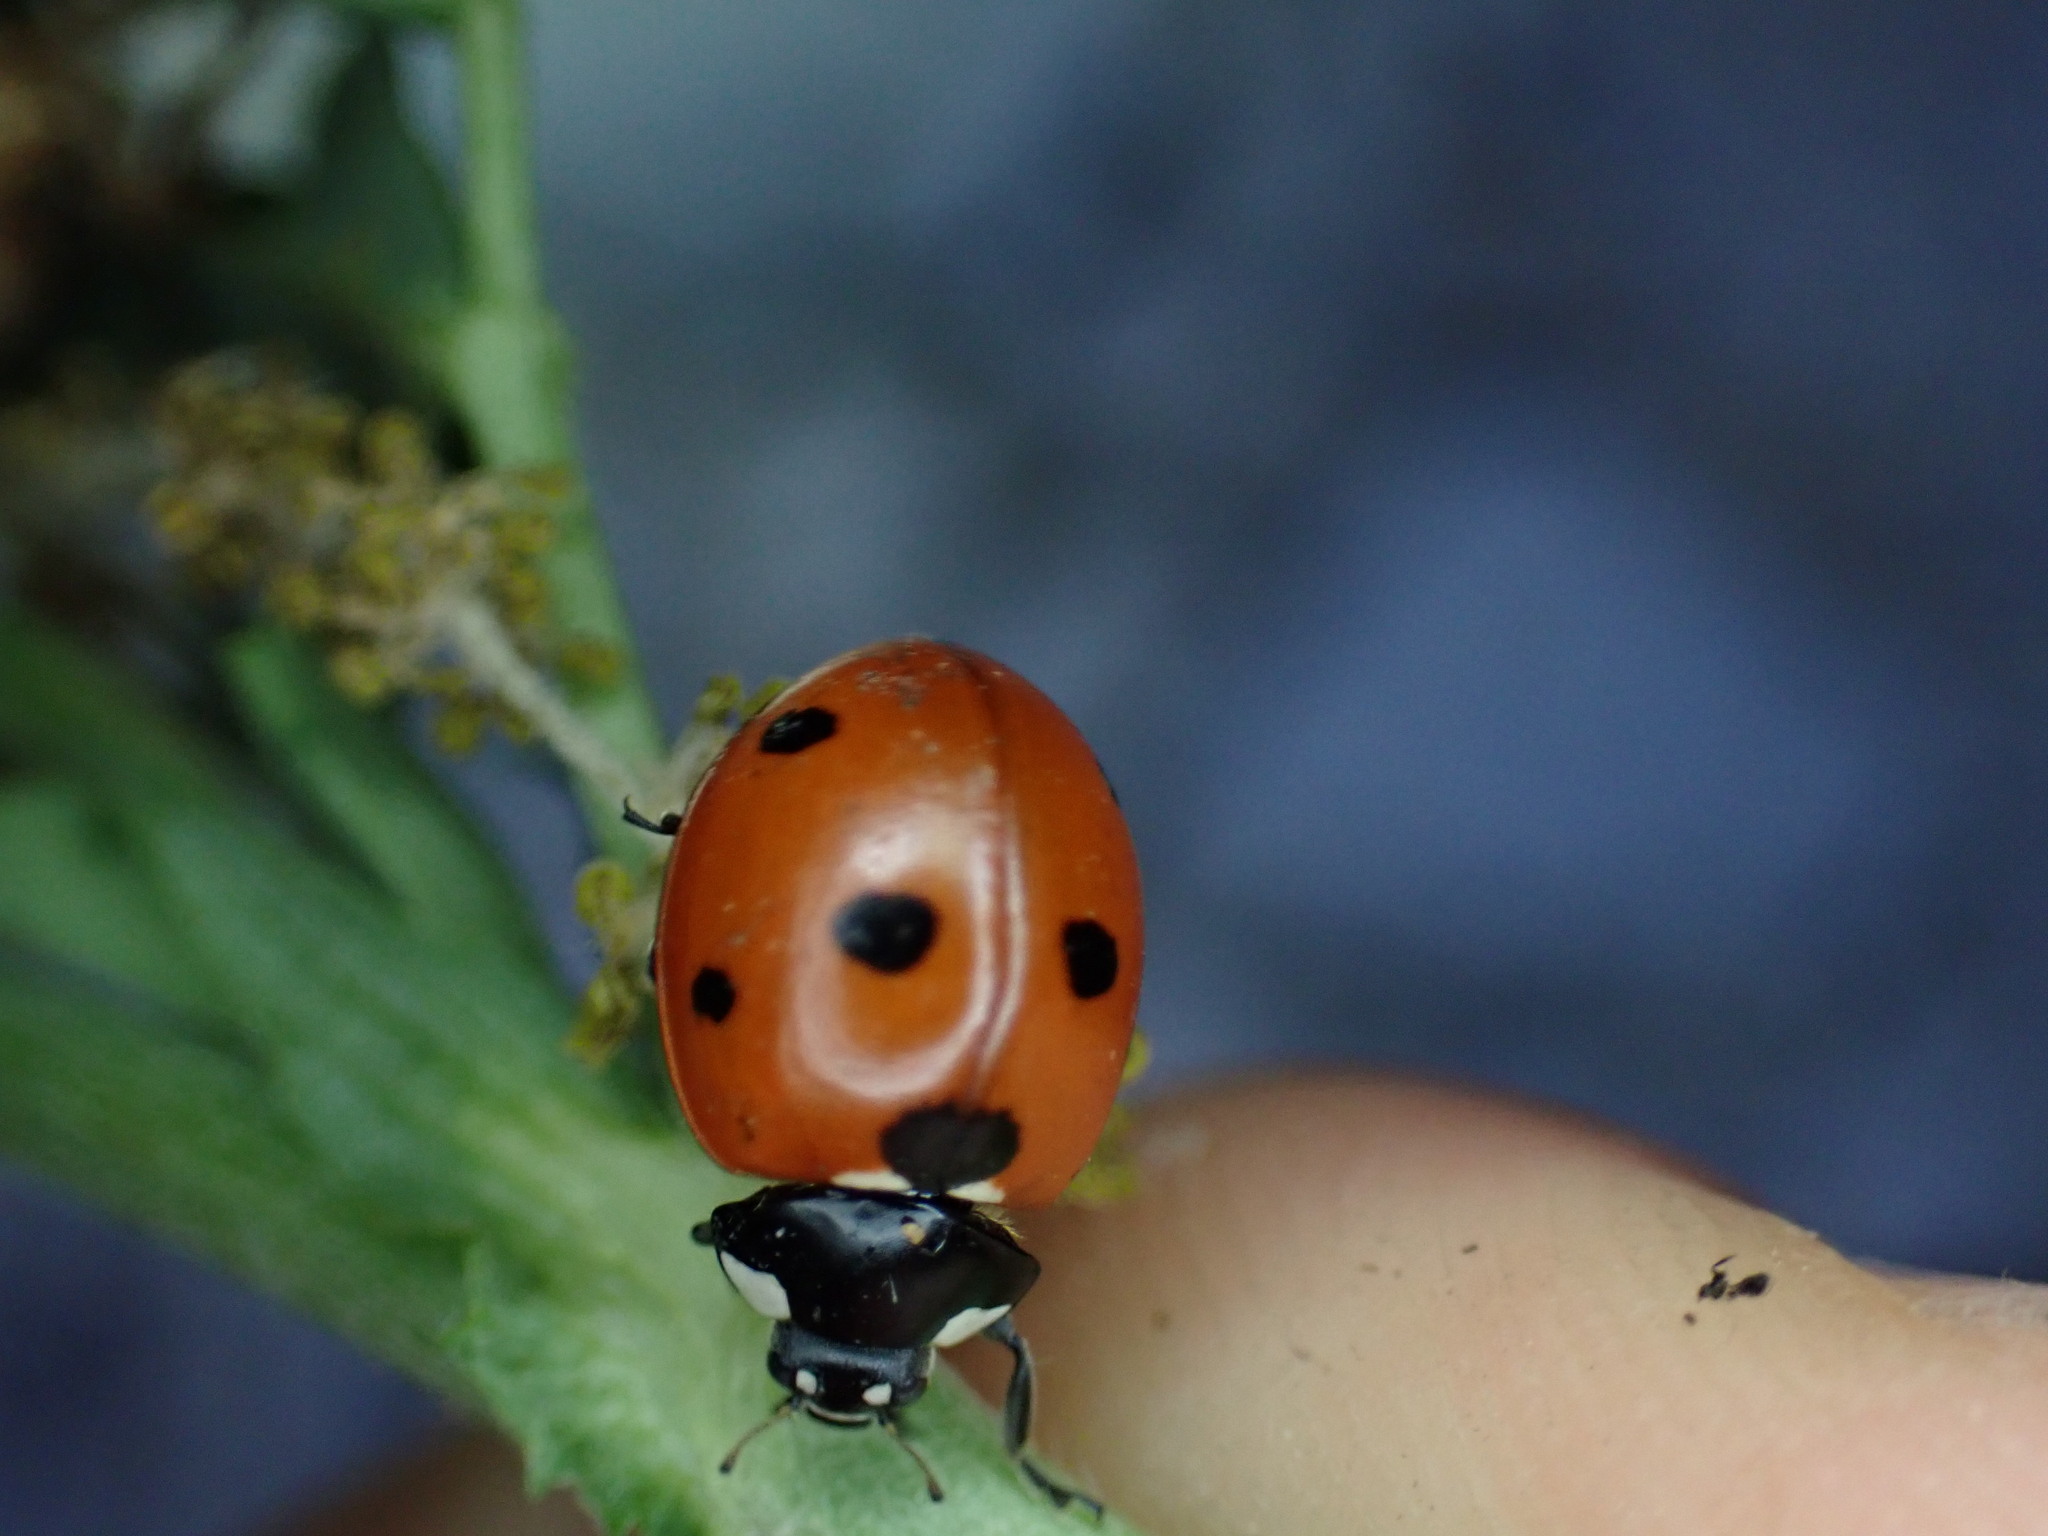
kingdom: Animalia
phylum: Arthropoda
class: Insecta
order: Coleoptera
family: Coccinellidae
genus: Coccinella
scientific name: Coccinella septempunctata
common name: Sevenspotted lady beetle
